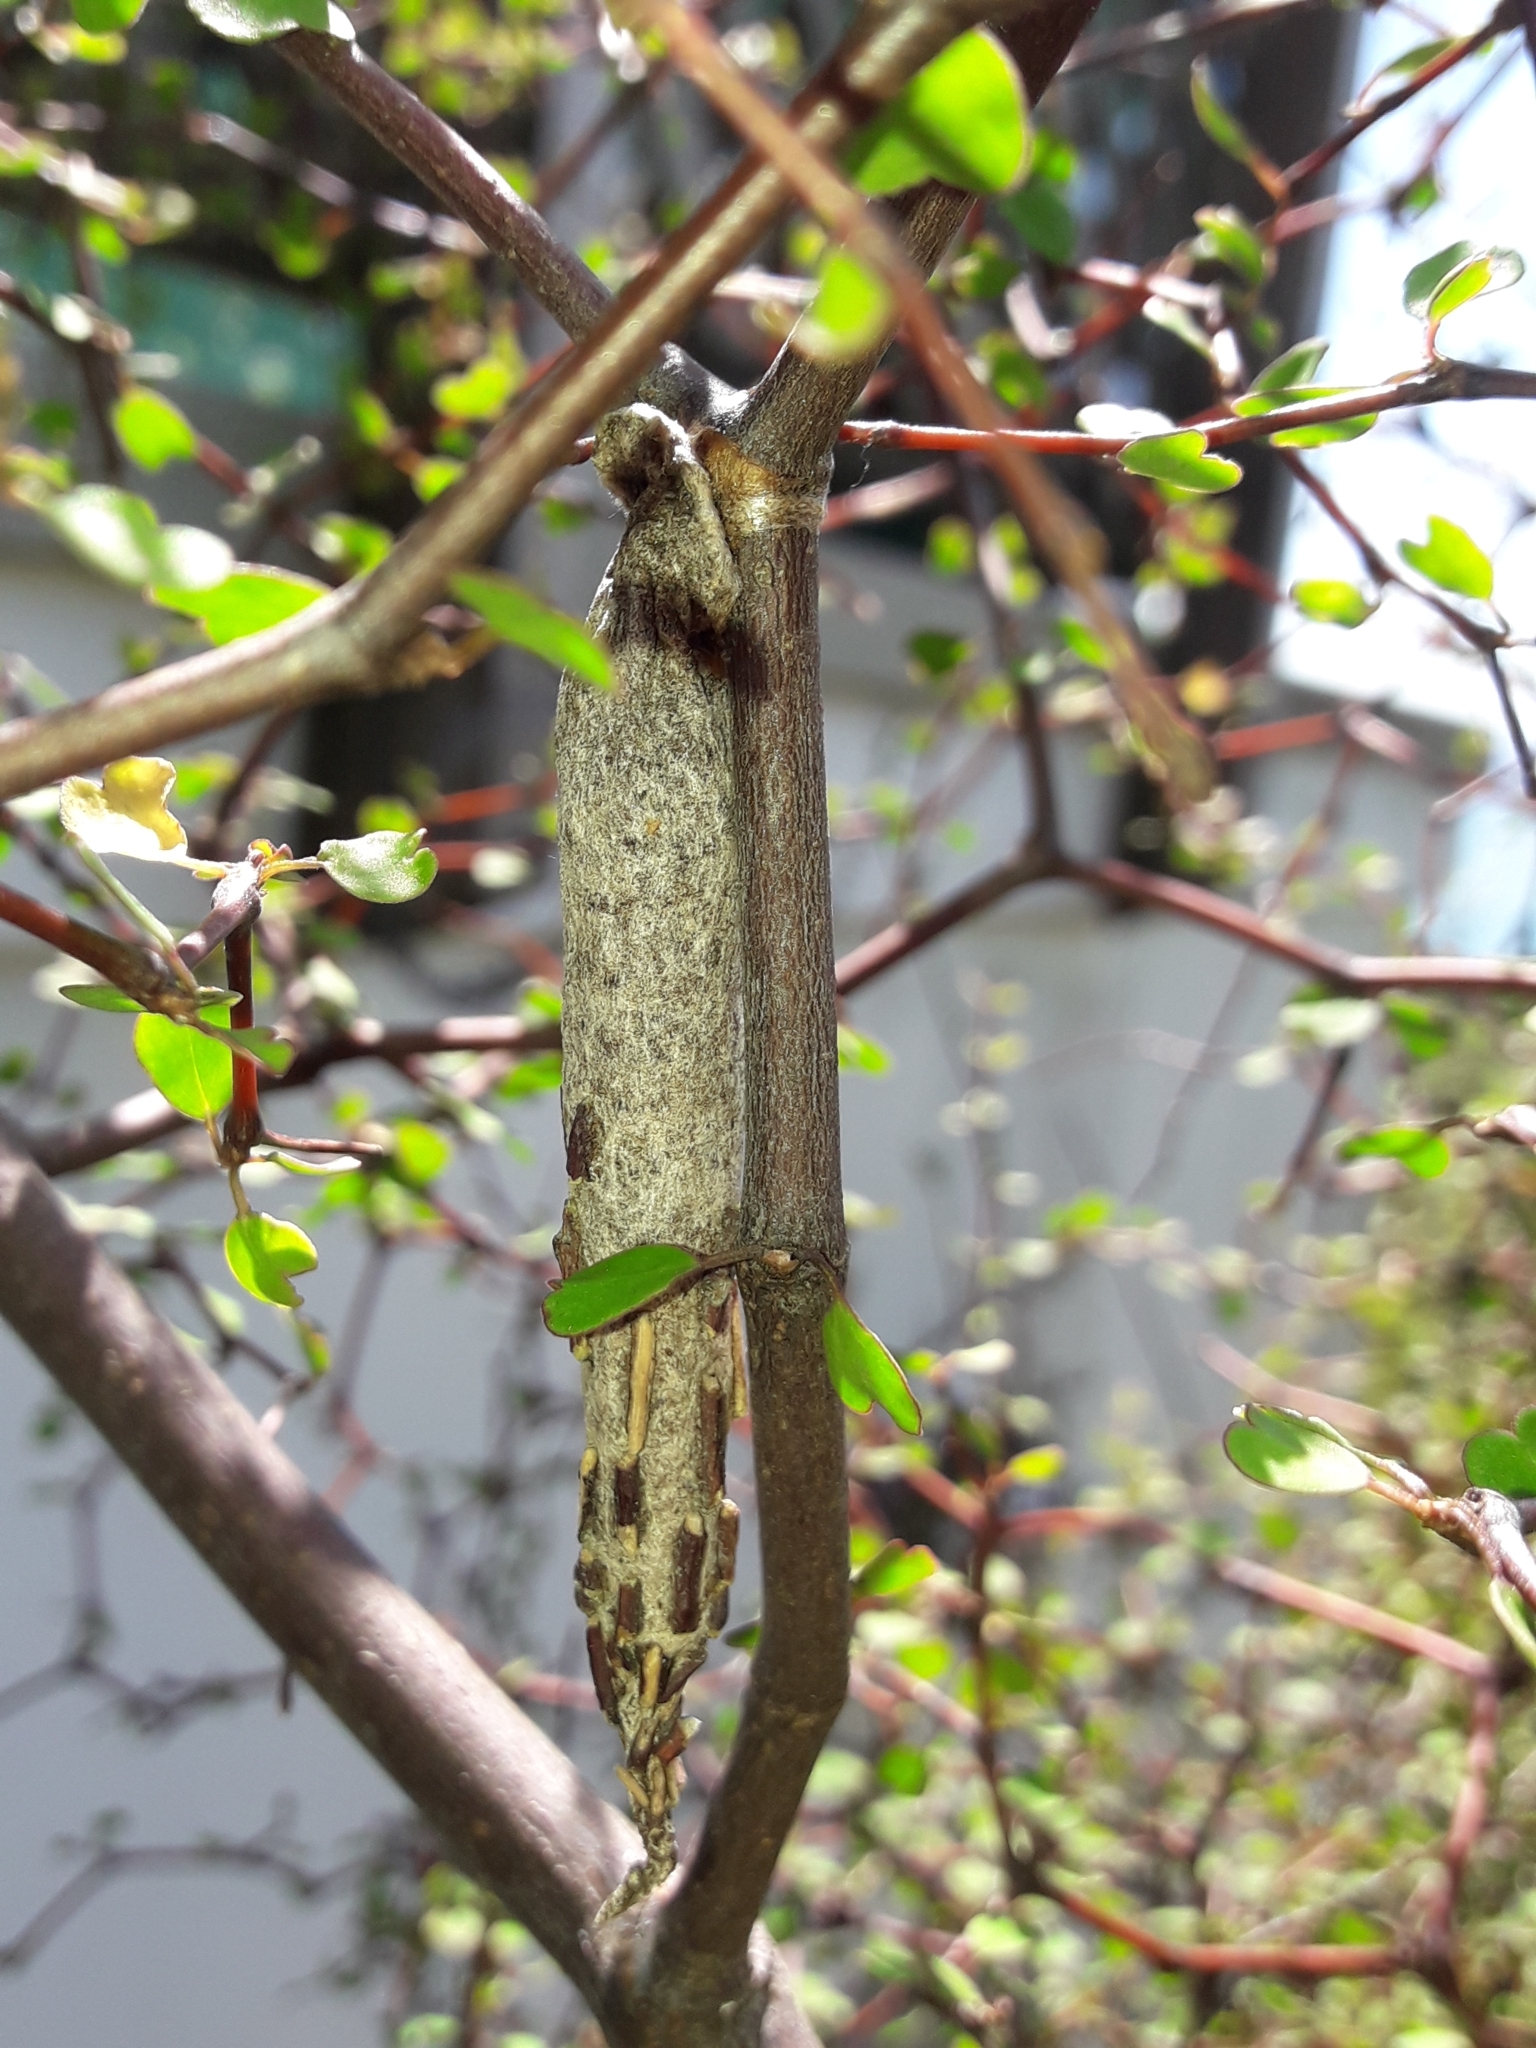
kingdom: Animalia
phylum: Arthropoda
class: Insecta
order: Lepidoptera
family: Psychidae
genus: Liothula
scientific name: Liothula omnivora
